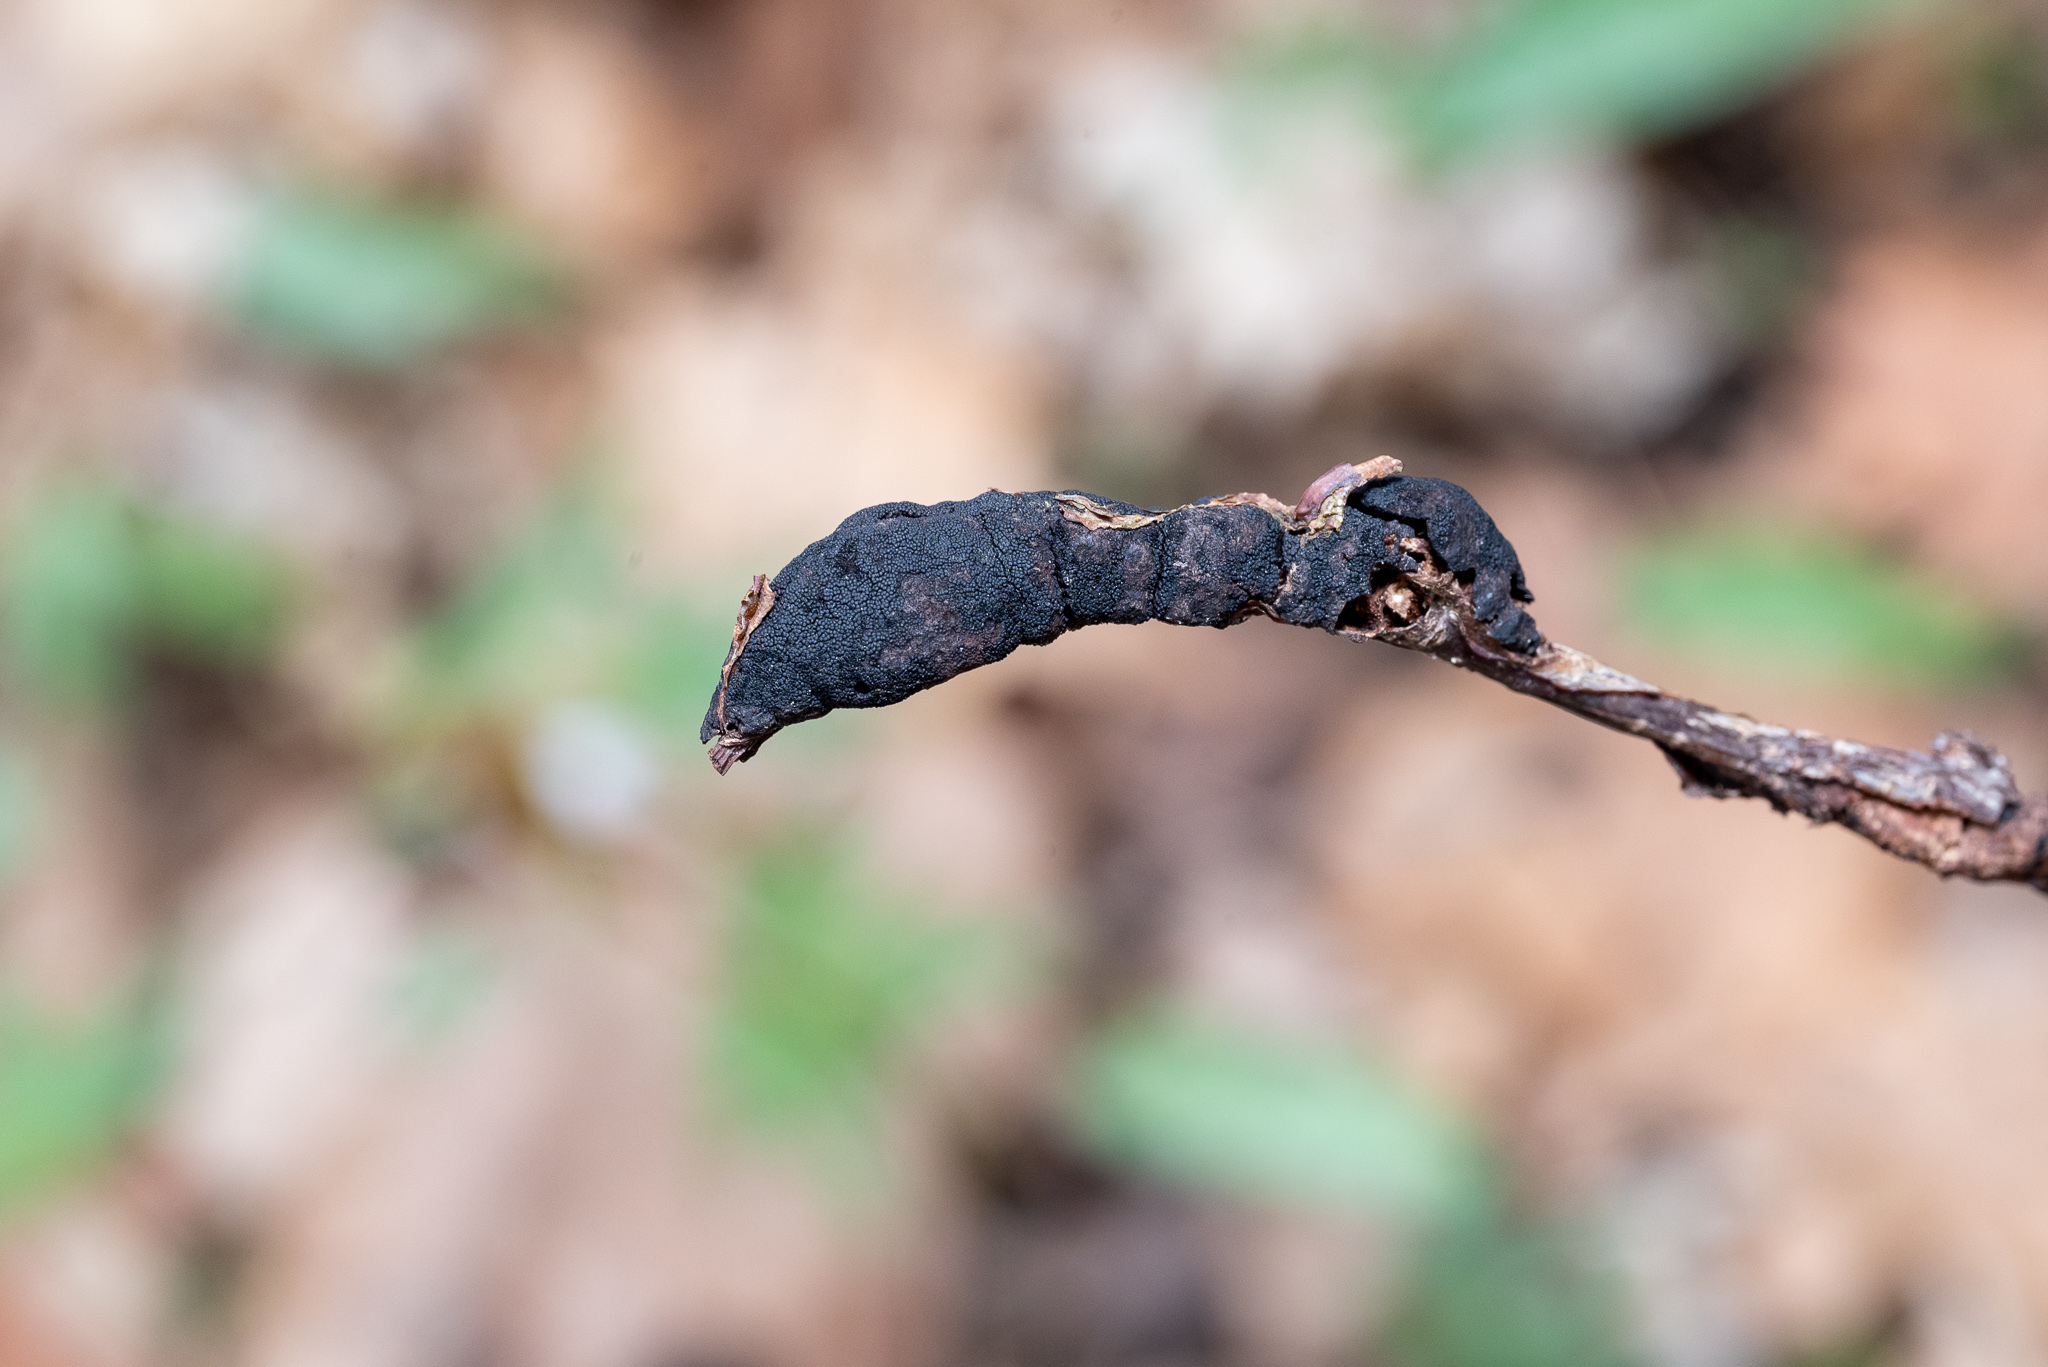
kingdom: Fungi
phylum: Ascomycota
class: Dothideomycetes
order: Venturiales
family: Venturiaceae
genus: Apiosporina
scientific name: Apiosporina morbosa
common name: Black knot
